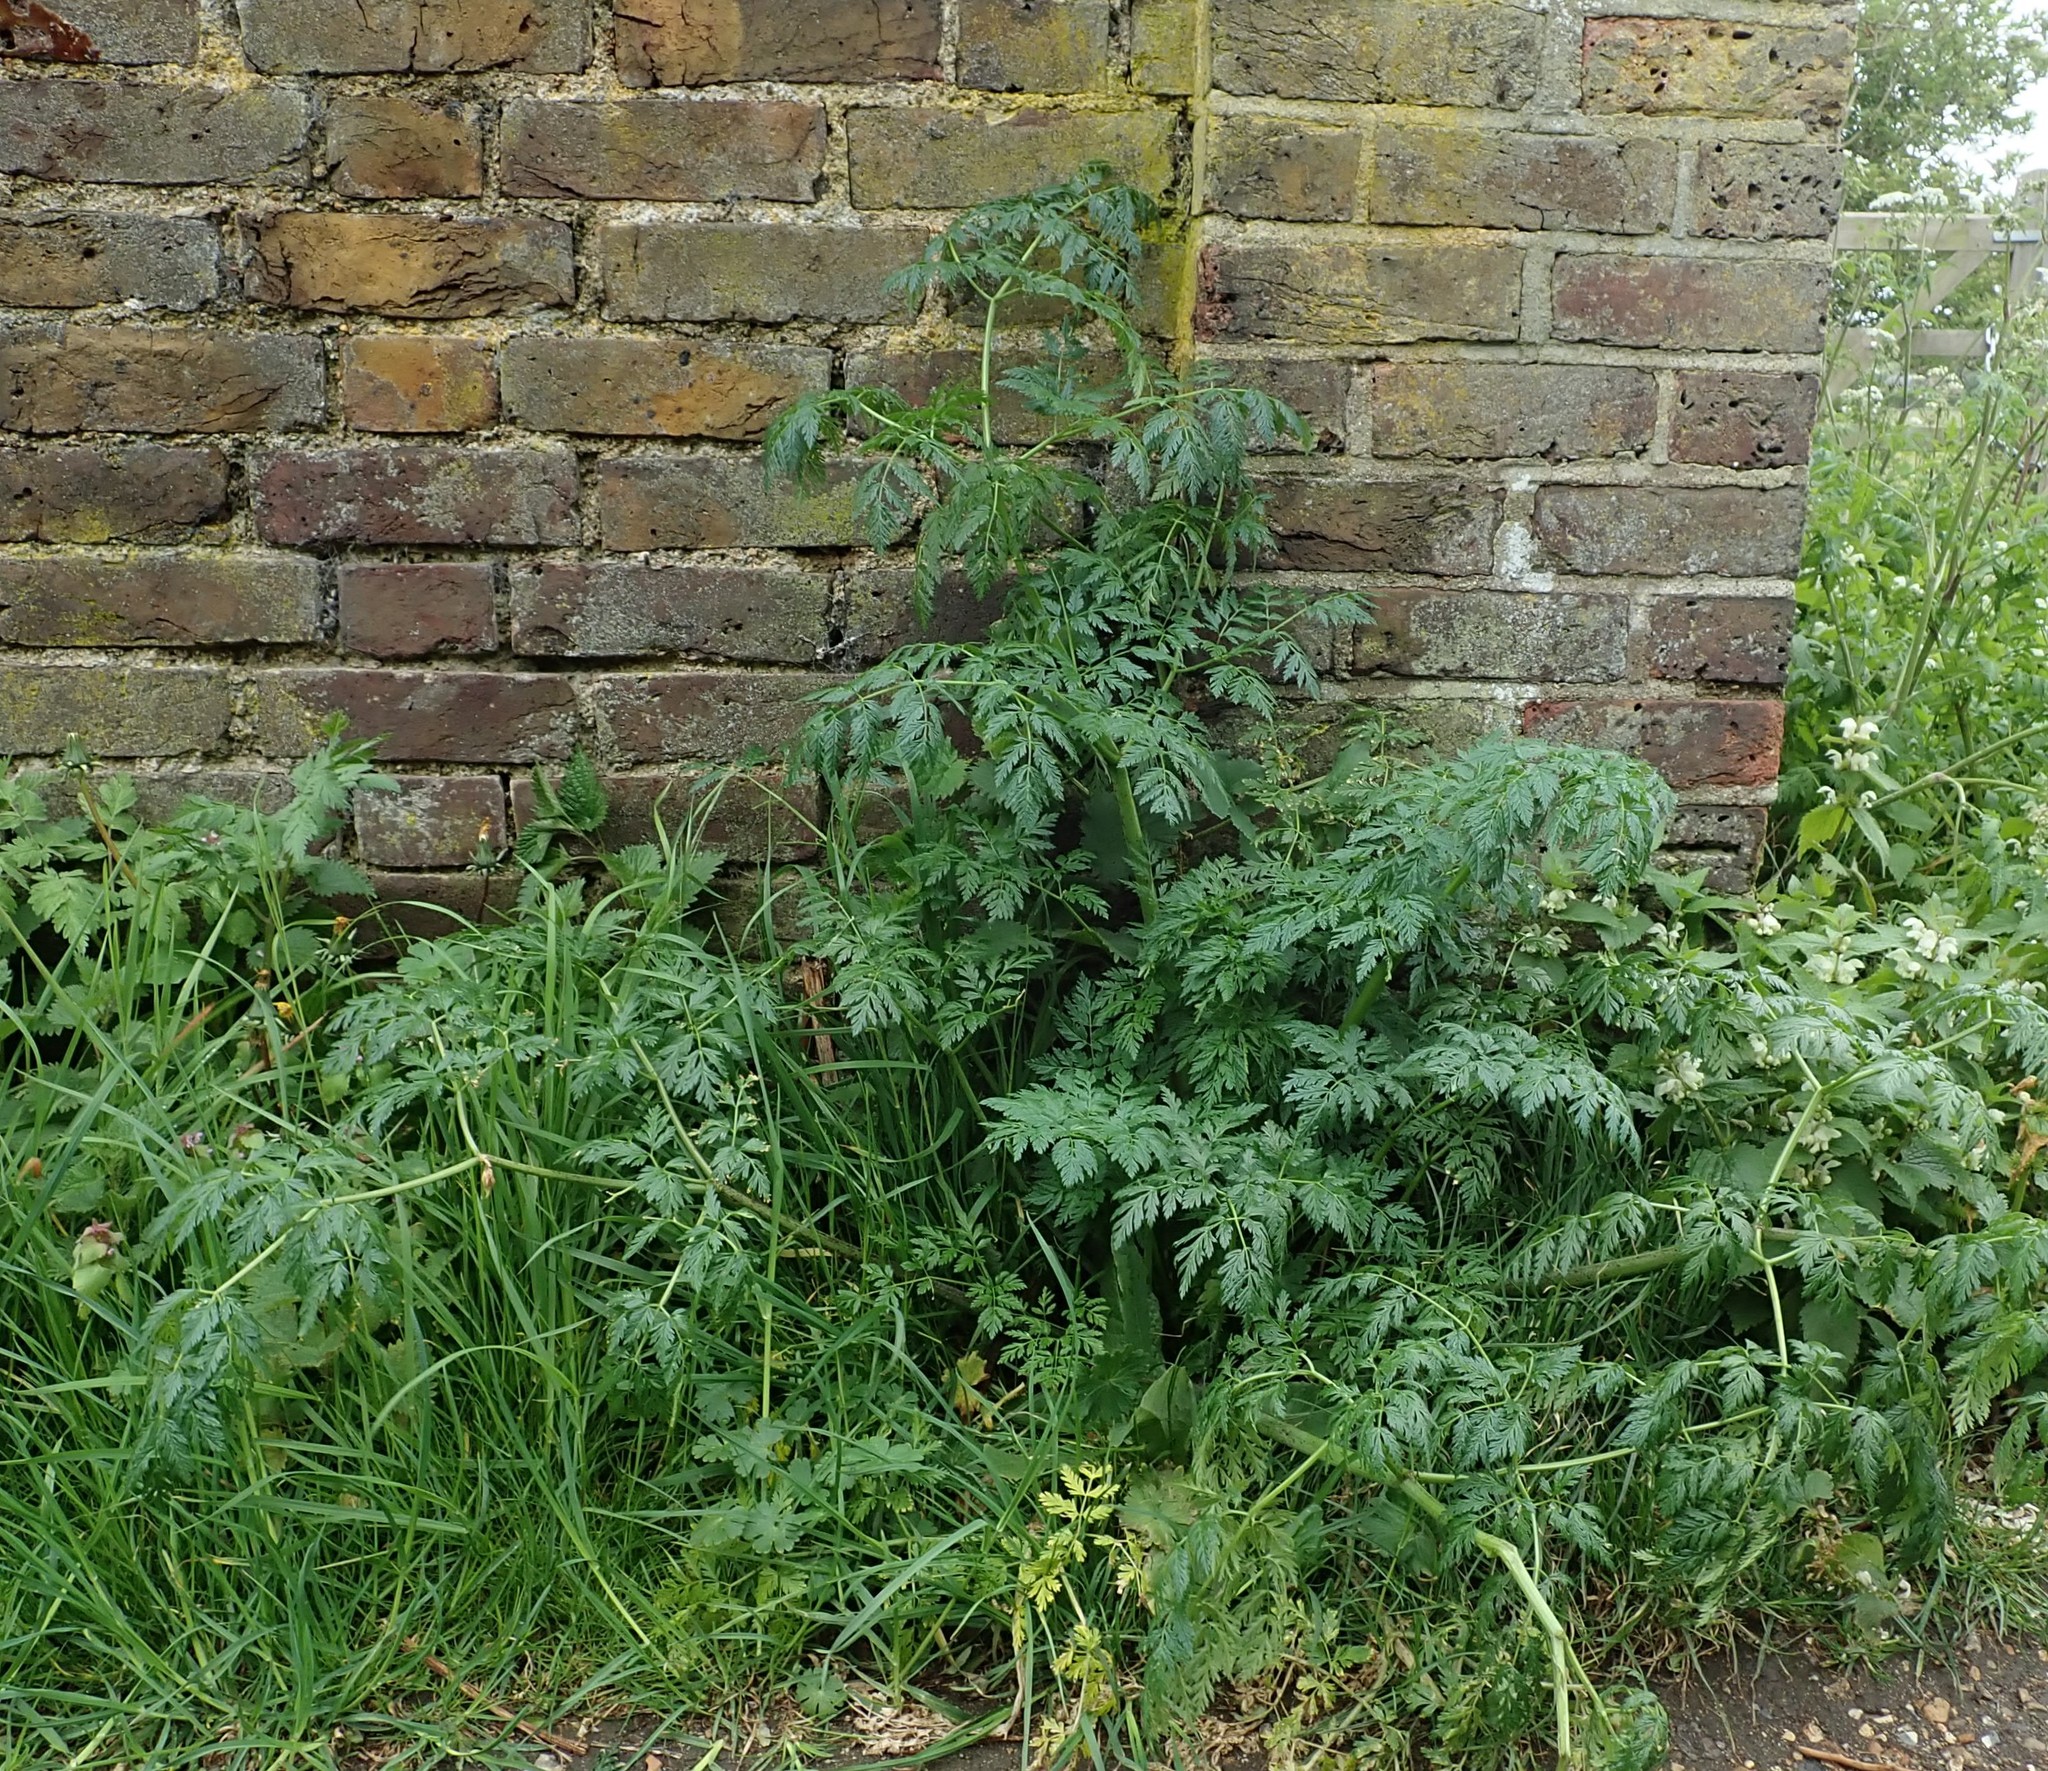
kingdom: Plantae
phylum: Tracheophyta
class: Magnoliopsida
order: Apiales
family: Apiaceae
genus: Conium
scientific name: Conium maculatum
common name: Hemlock
